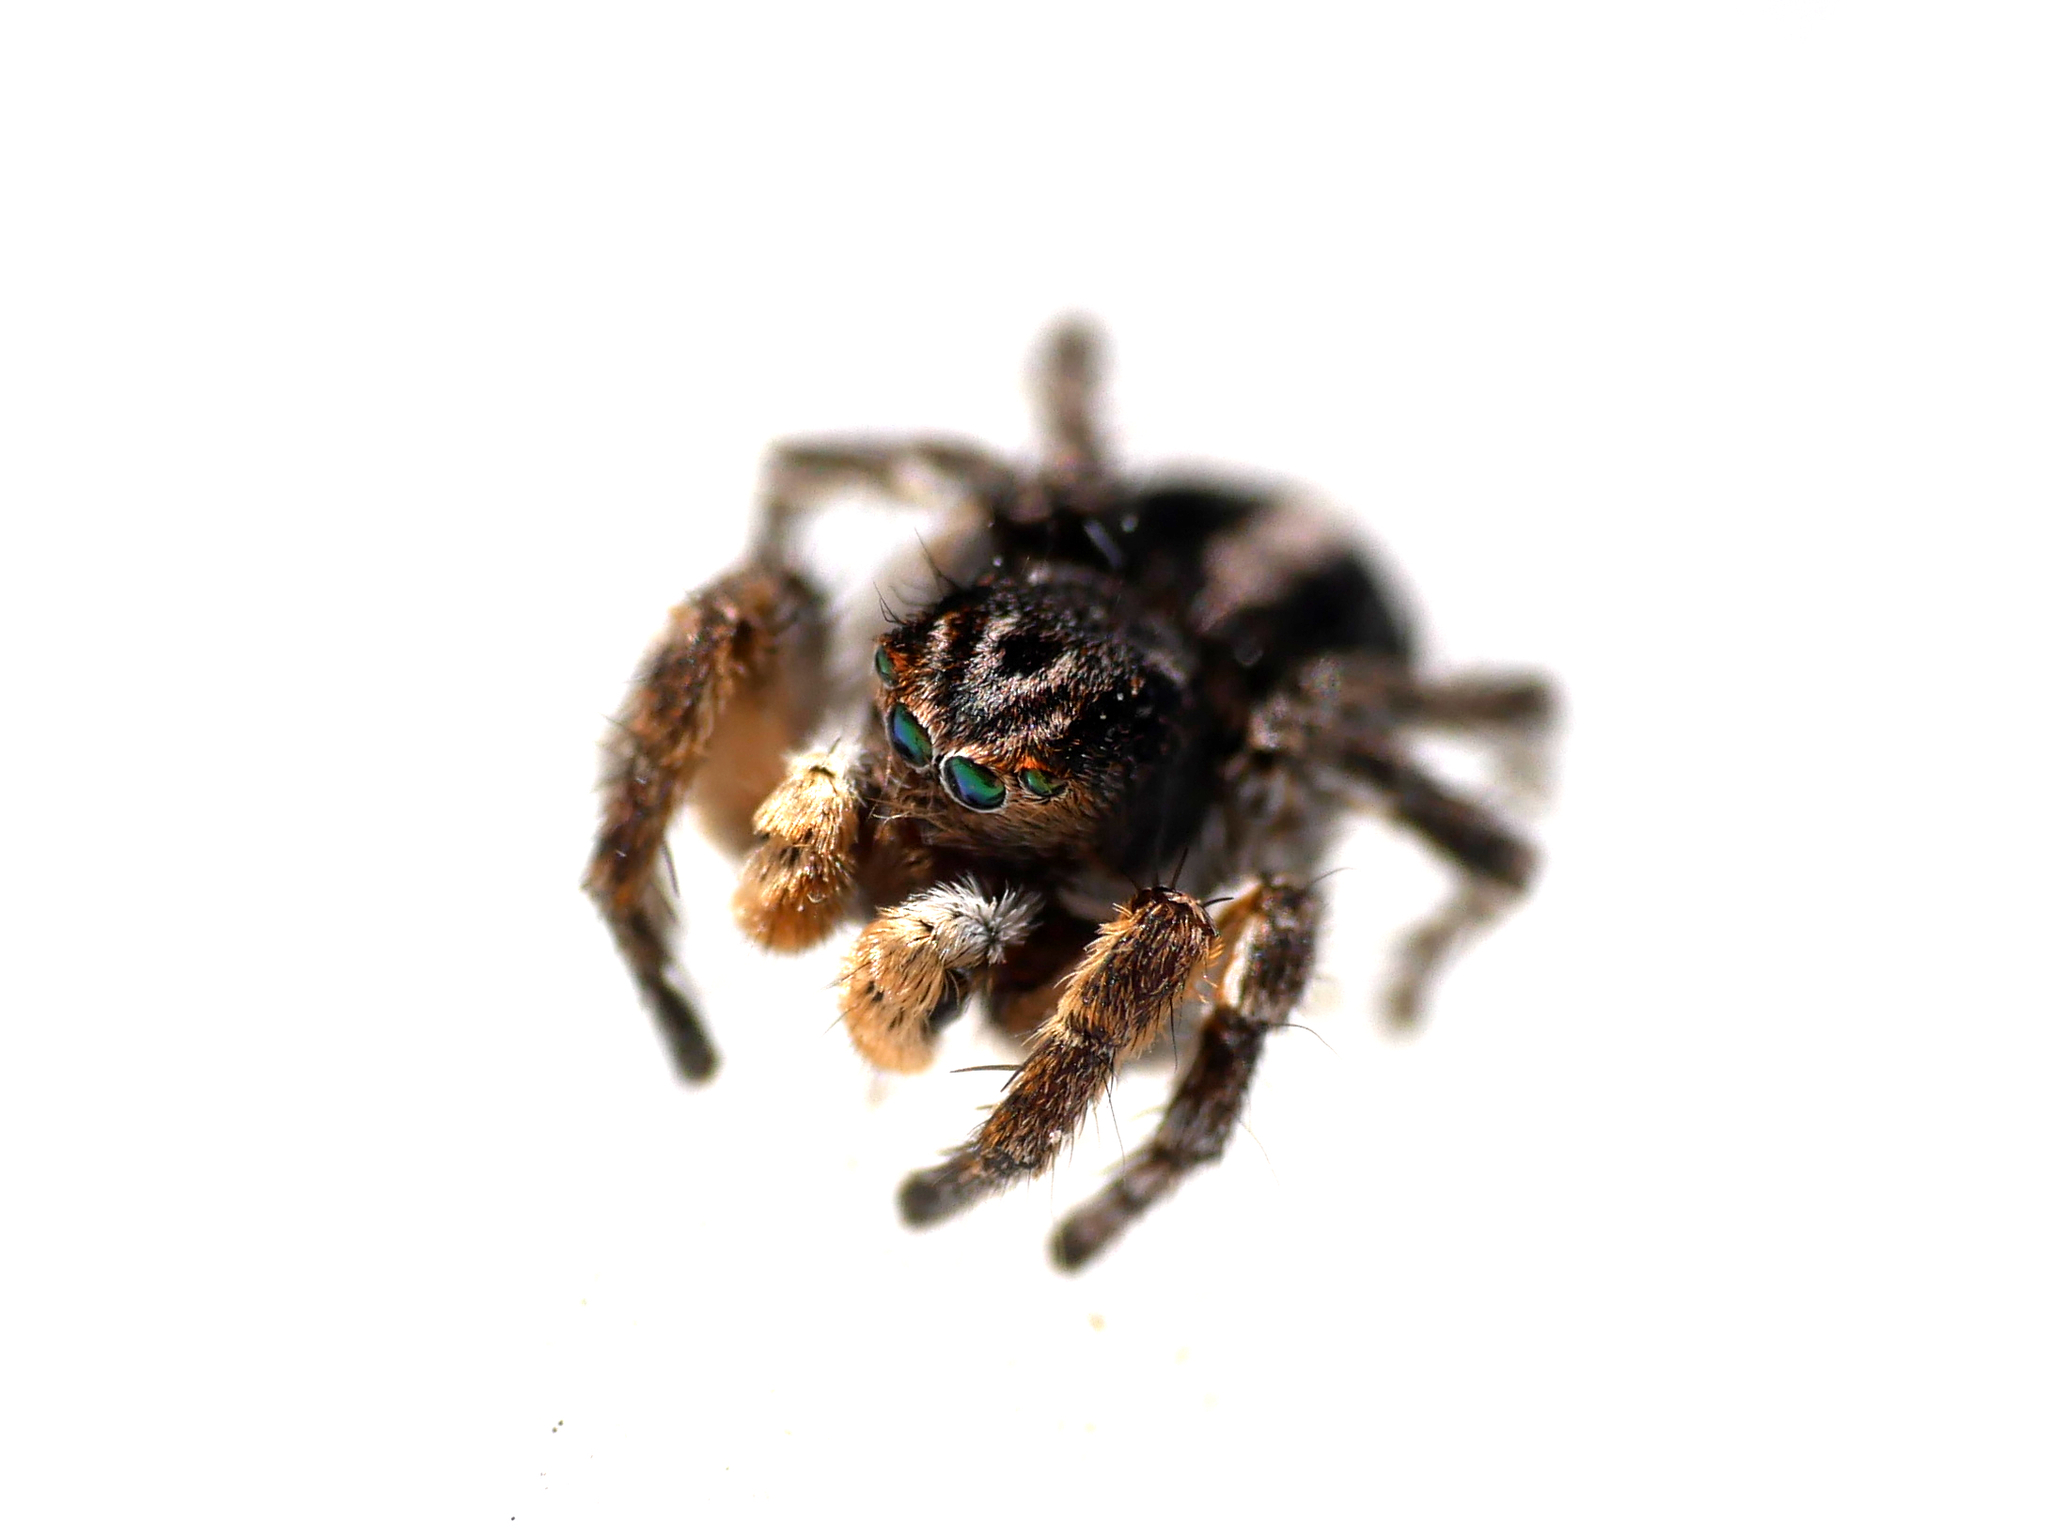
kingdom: Animalia
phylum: Arthropoda
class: Arachnida
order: Araneae
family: Salticidae
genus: Aelurillus
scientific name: Aelurillus v-insignitus
